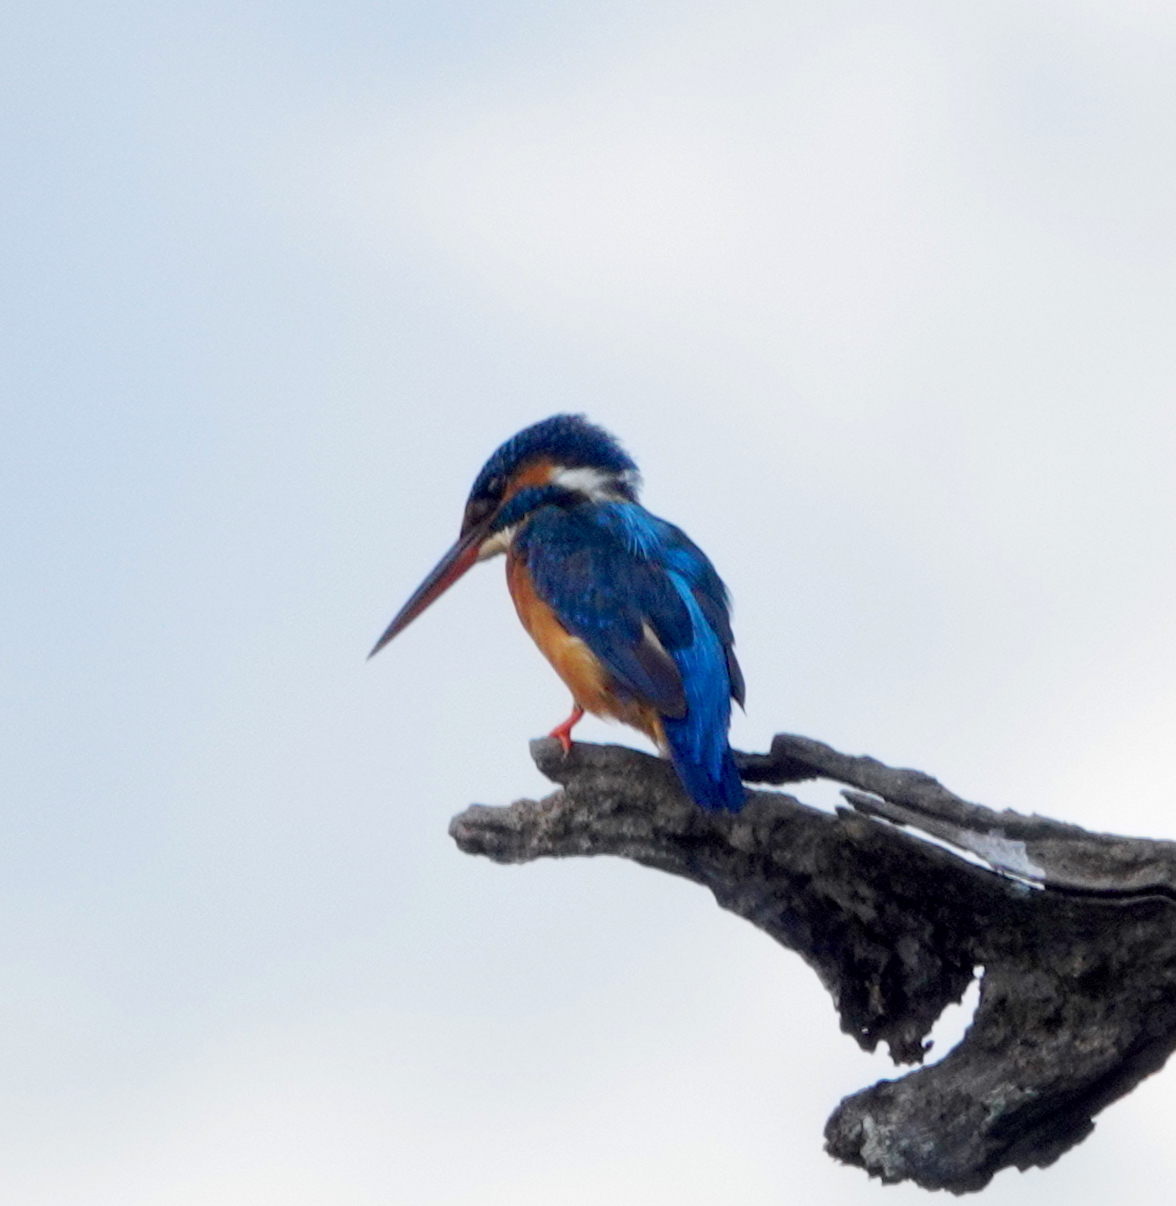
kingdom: Animalia
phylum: Chordata
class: Aves
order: Coraciiformes
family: Alcedinidae
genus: Alcedo
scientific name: Alcedo atthis
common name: Common kingfisher
